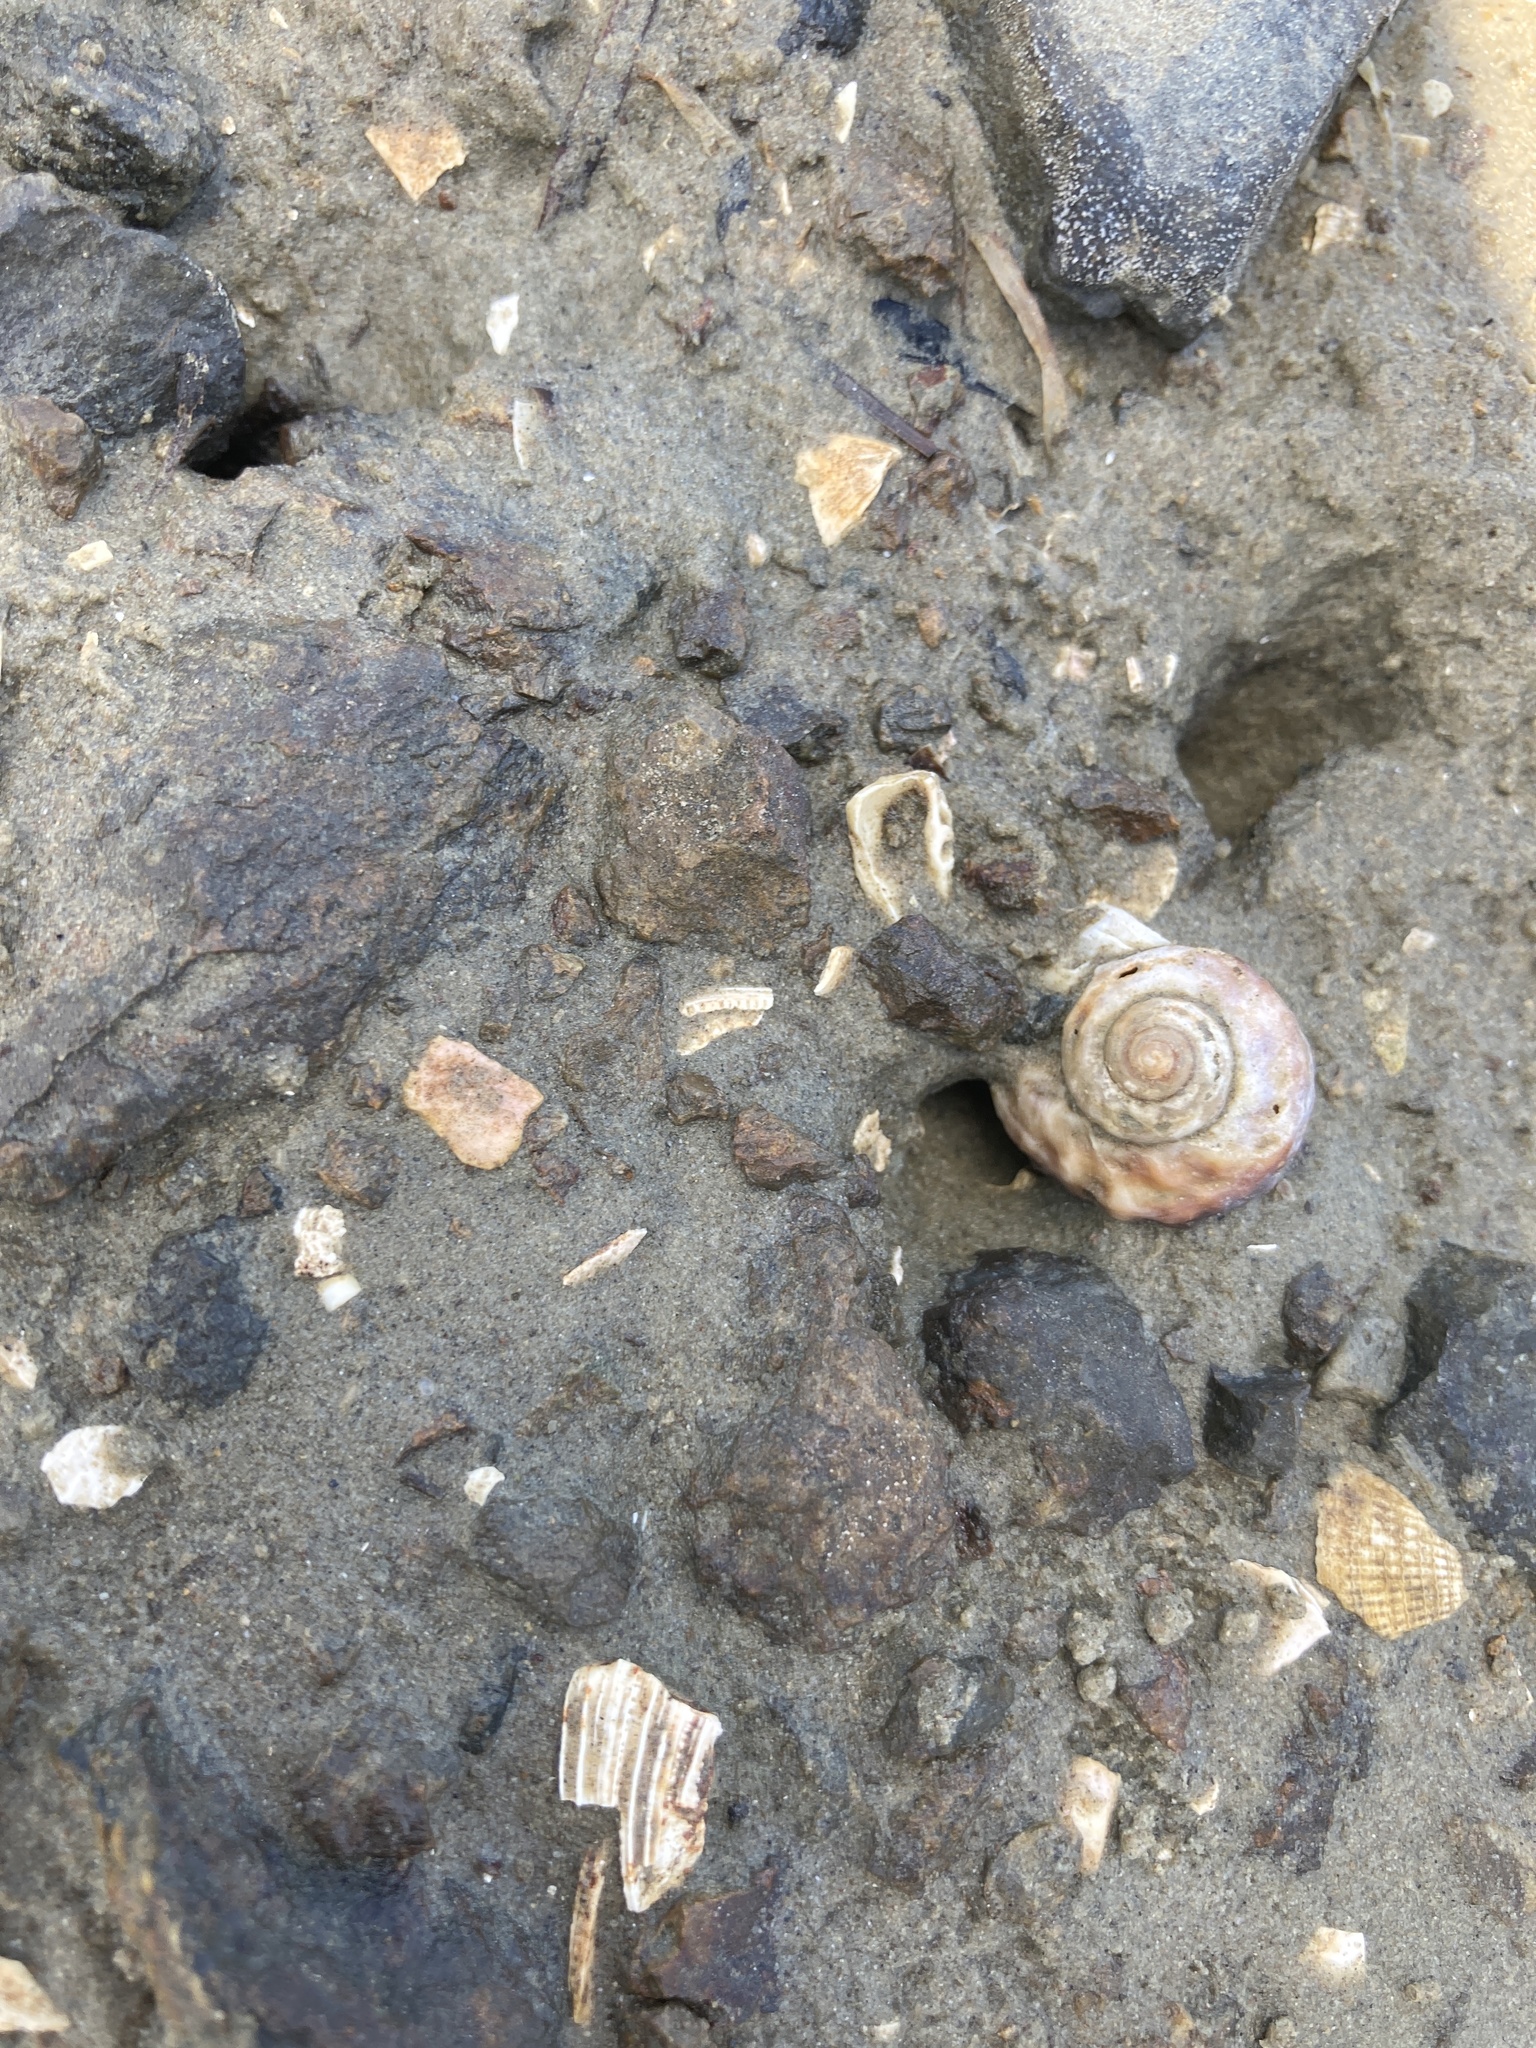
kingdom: Animalia
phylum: Mollusca
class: Gastropoda
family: Amphibolidae
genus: Amphibola
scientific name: Amphibola crenata
